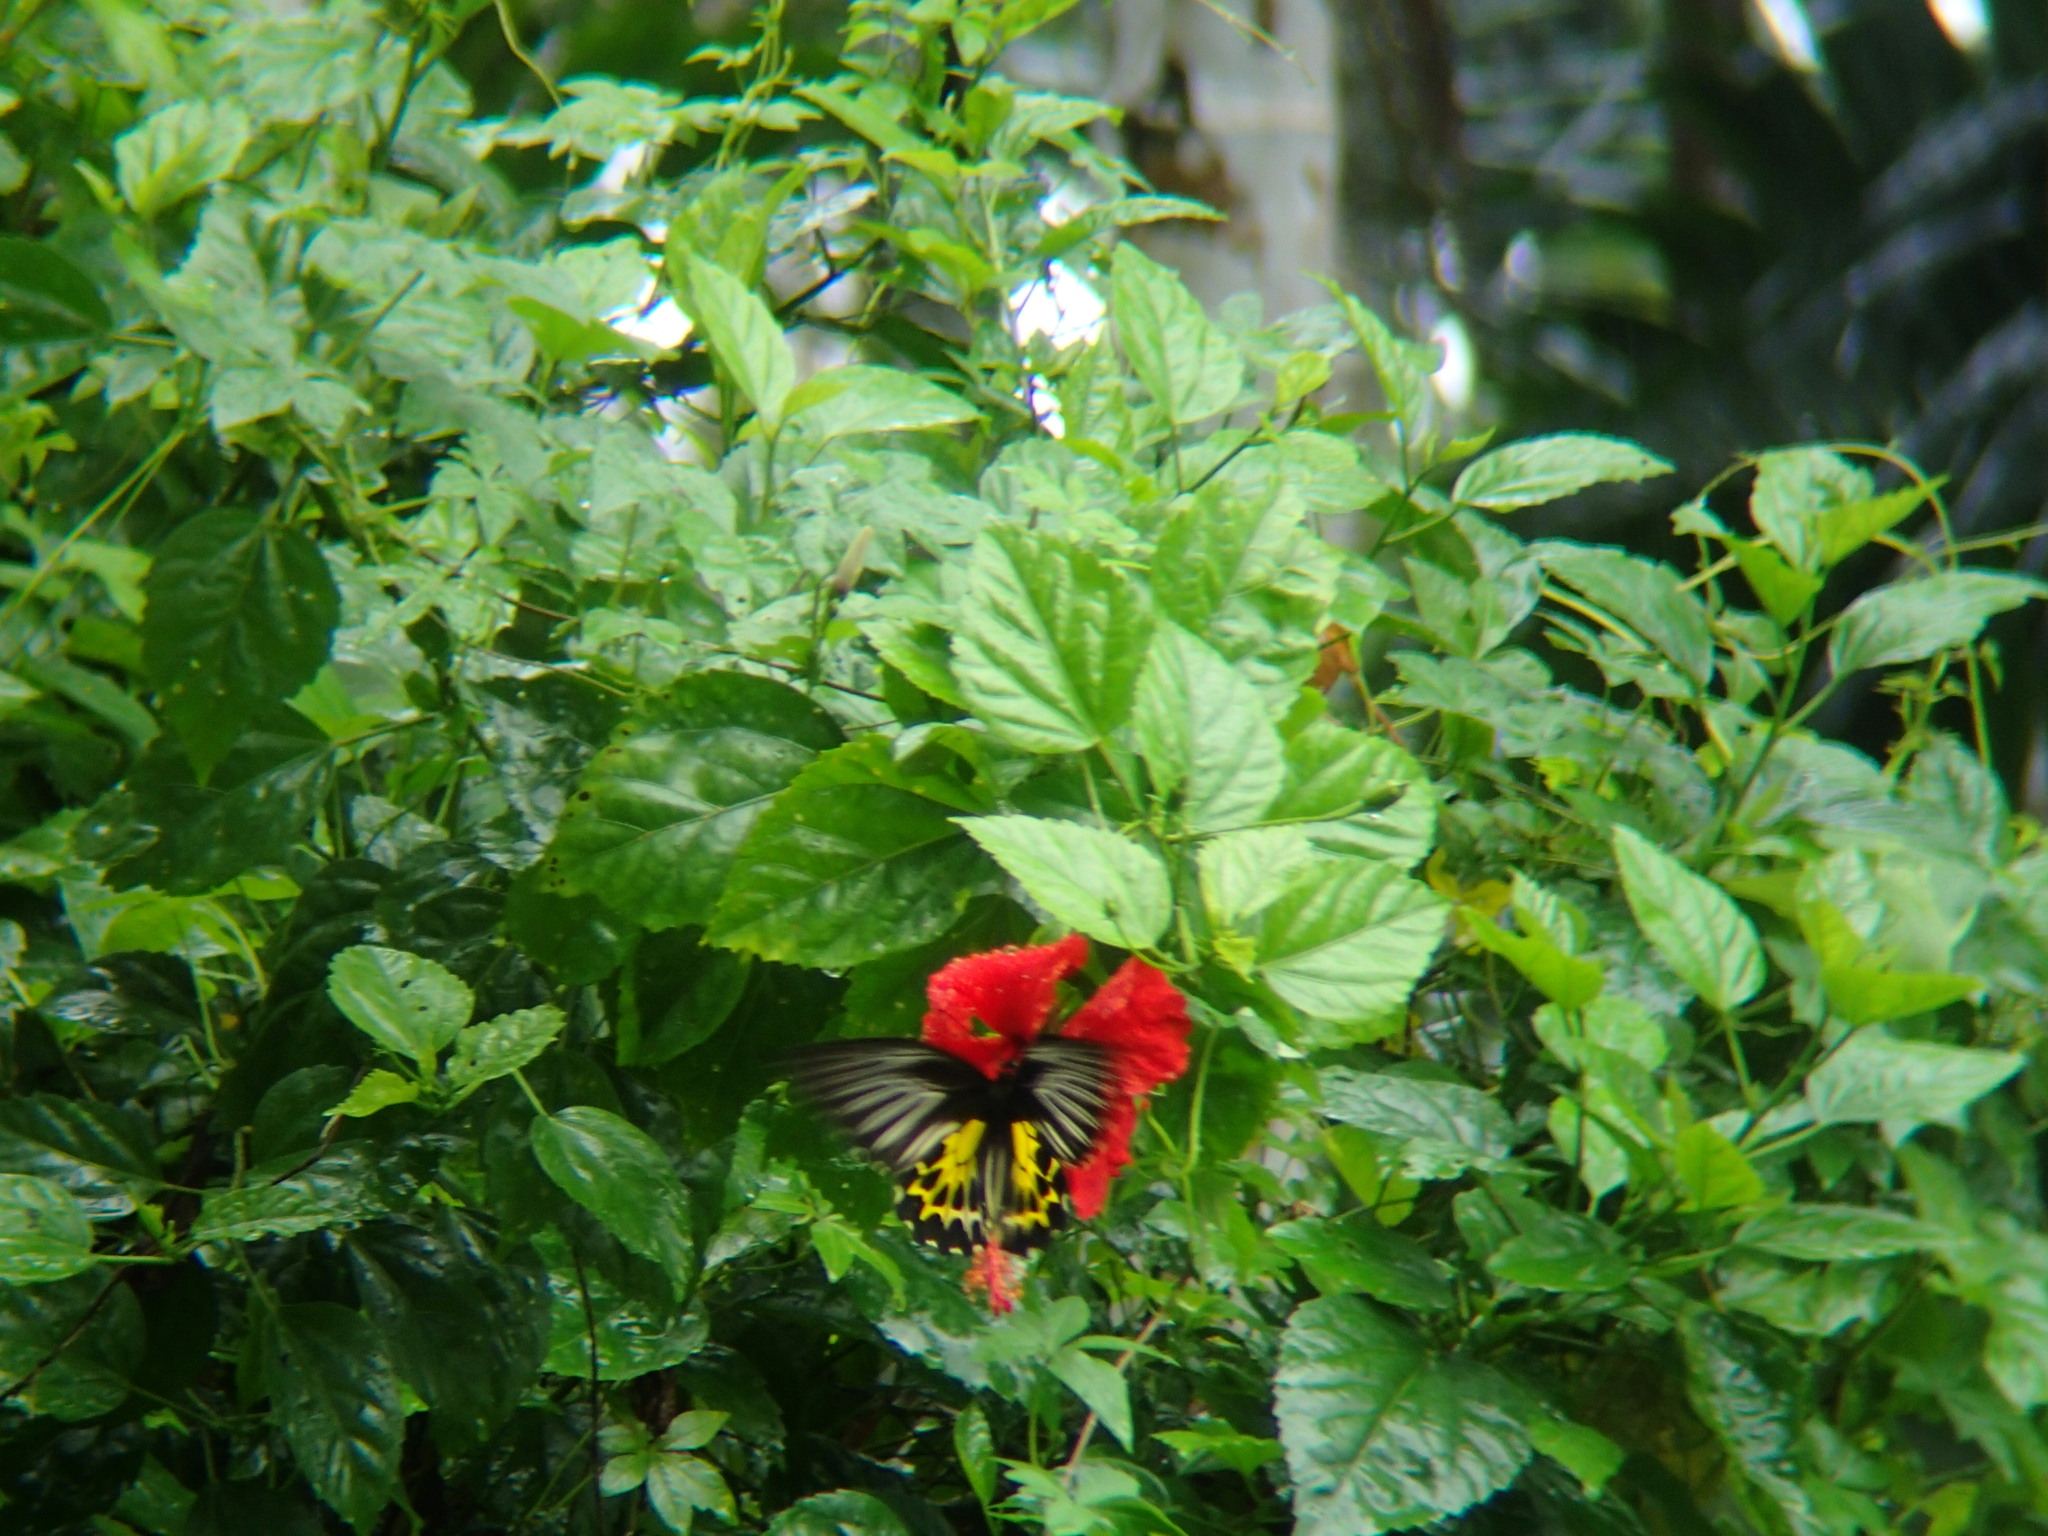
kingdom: Animalia
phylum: Arthropoda
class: Insecta
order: Lepidoptera
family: Papilionidae
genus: Troides
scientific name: Troides minos
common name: Malabar birdwing
